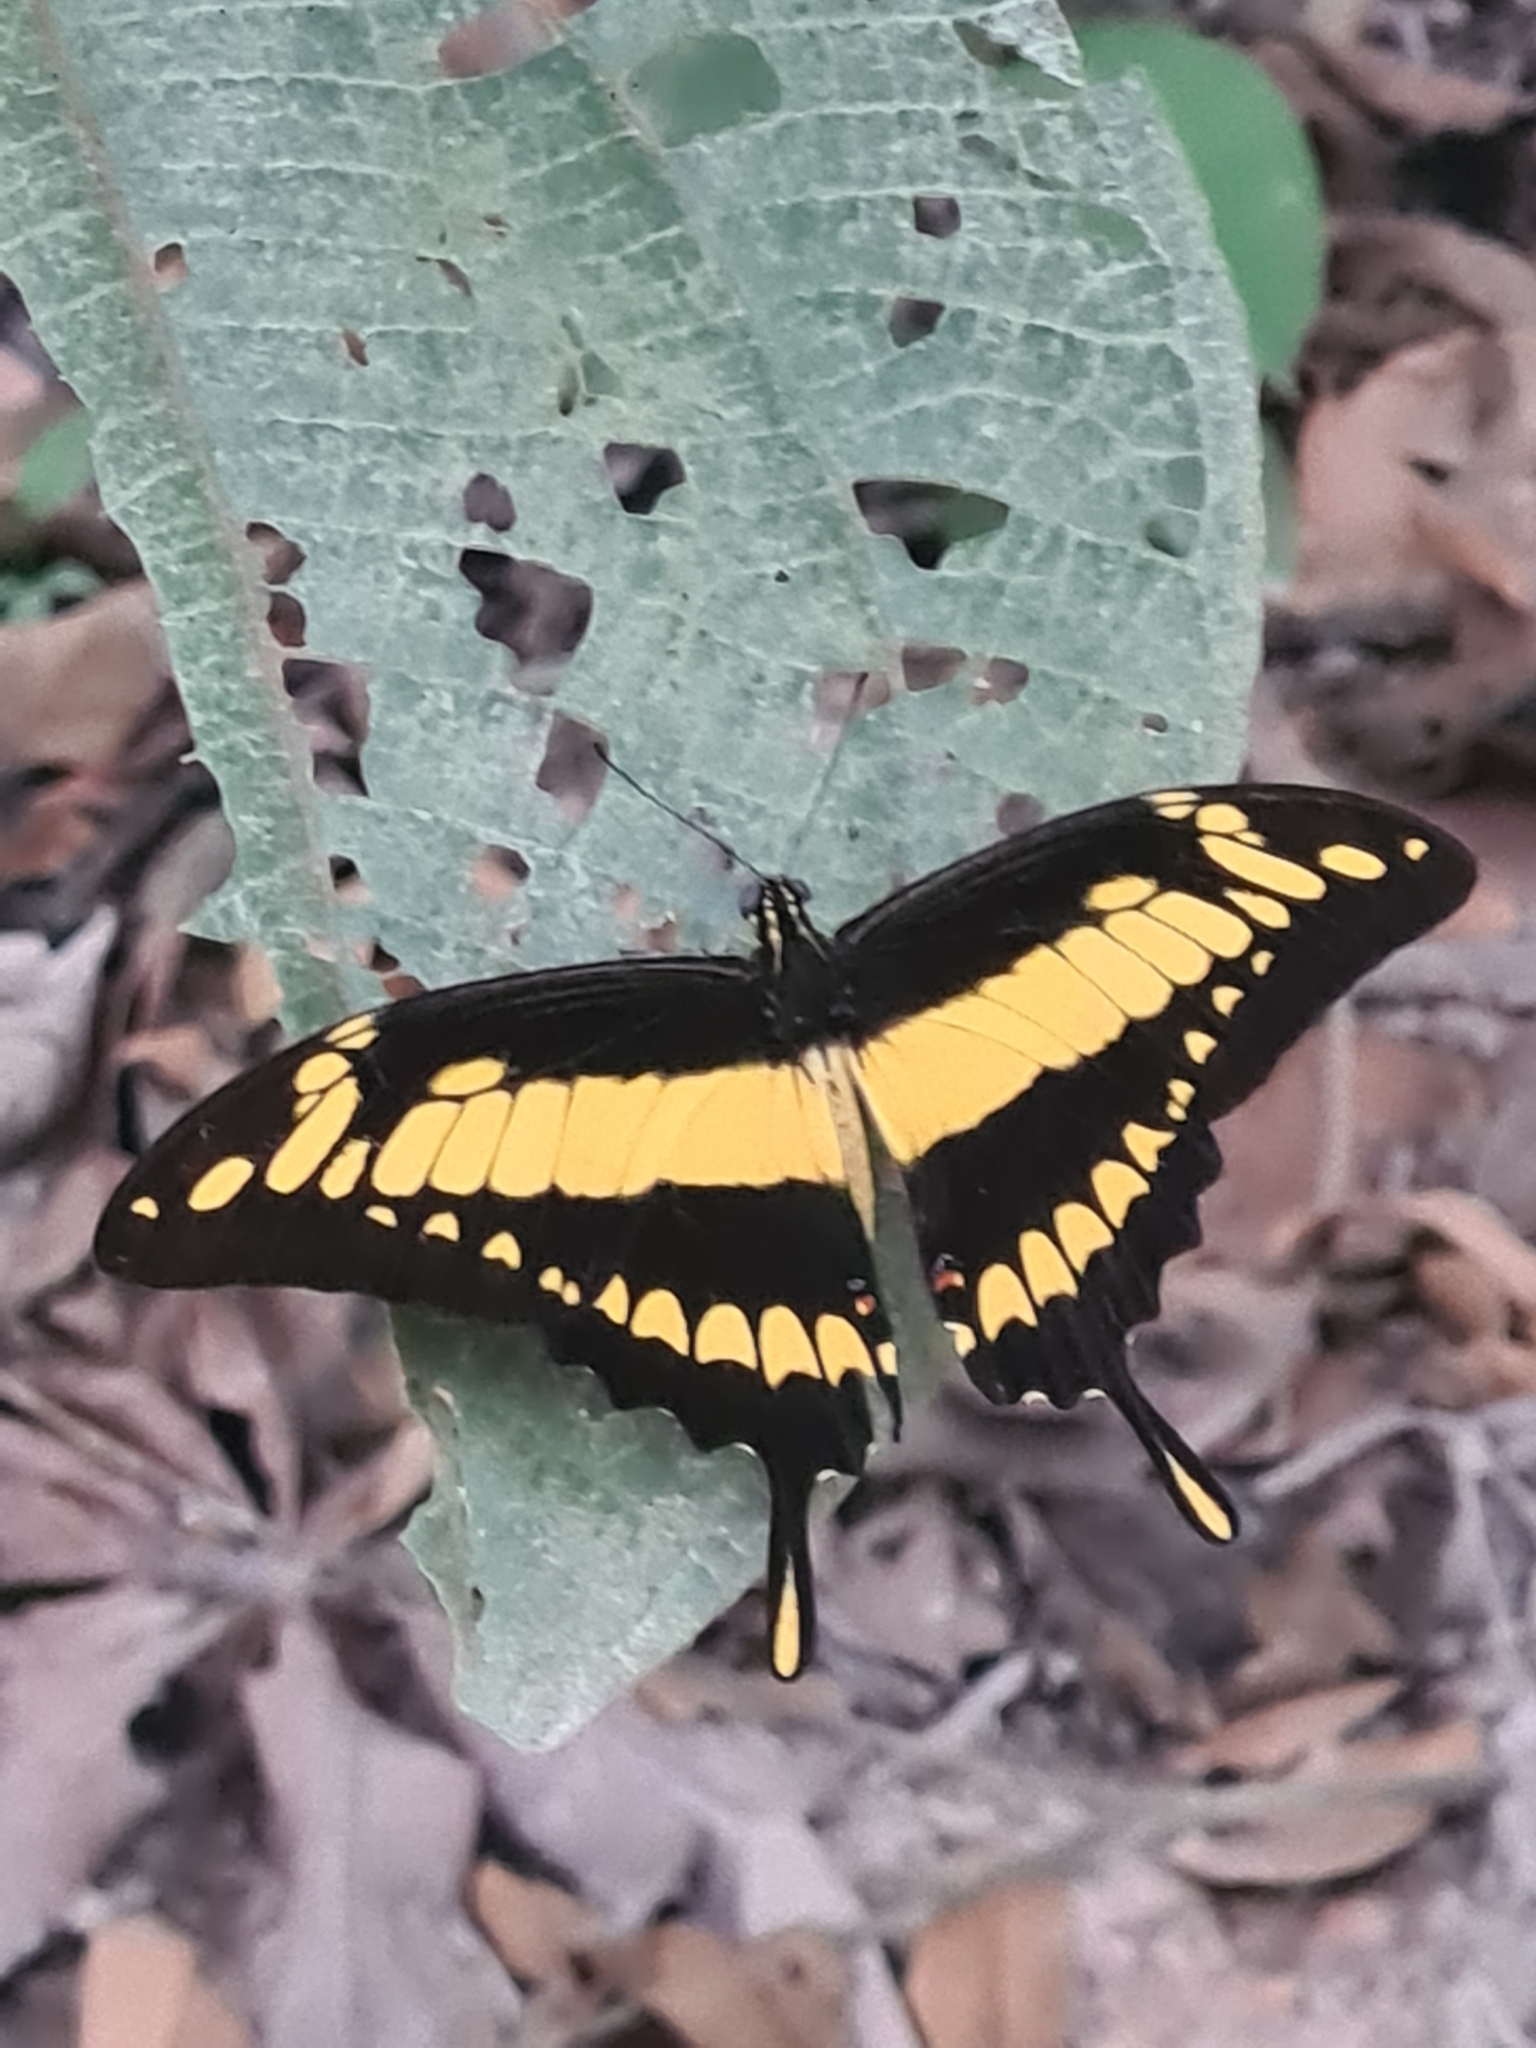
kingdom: Animalia
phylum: Arthropoda
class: Insecta
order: Lepidoptera
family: Papilionidae
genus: Papilio
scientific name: Papilio thoas
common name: King swallowtail
